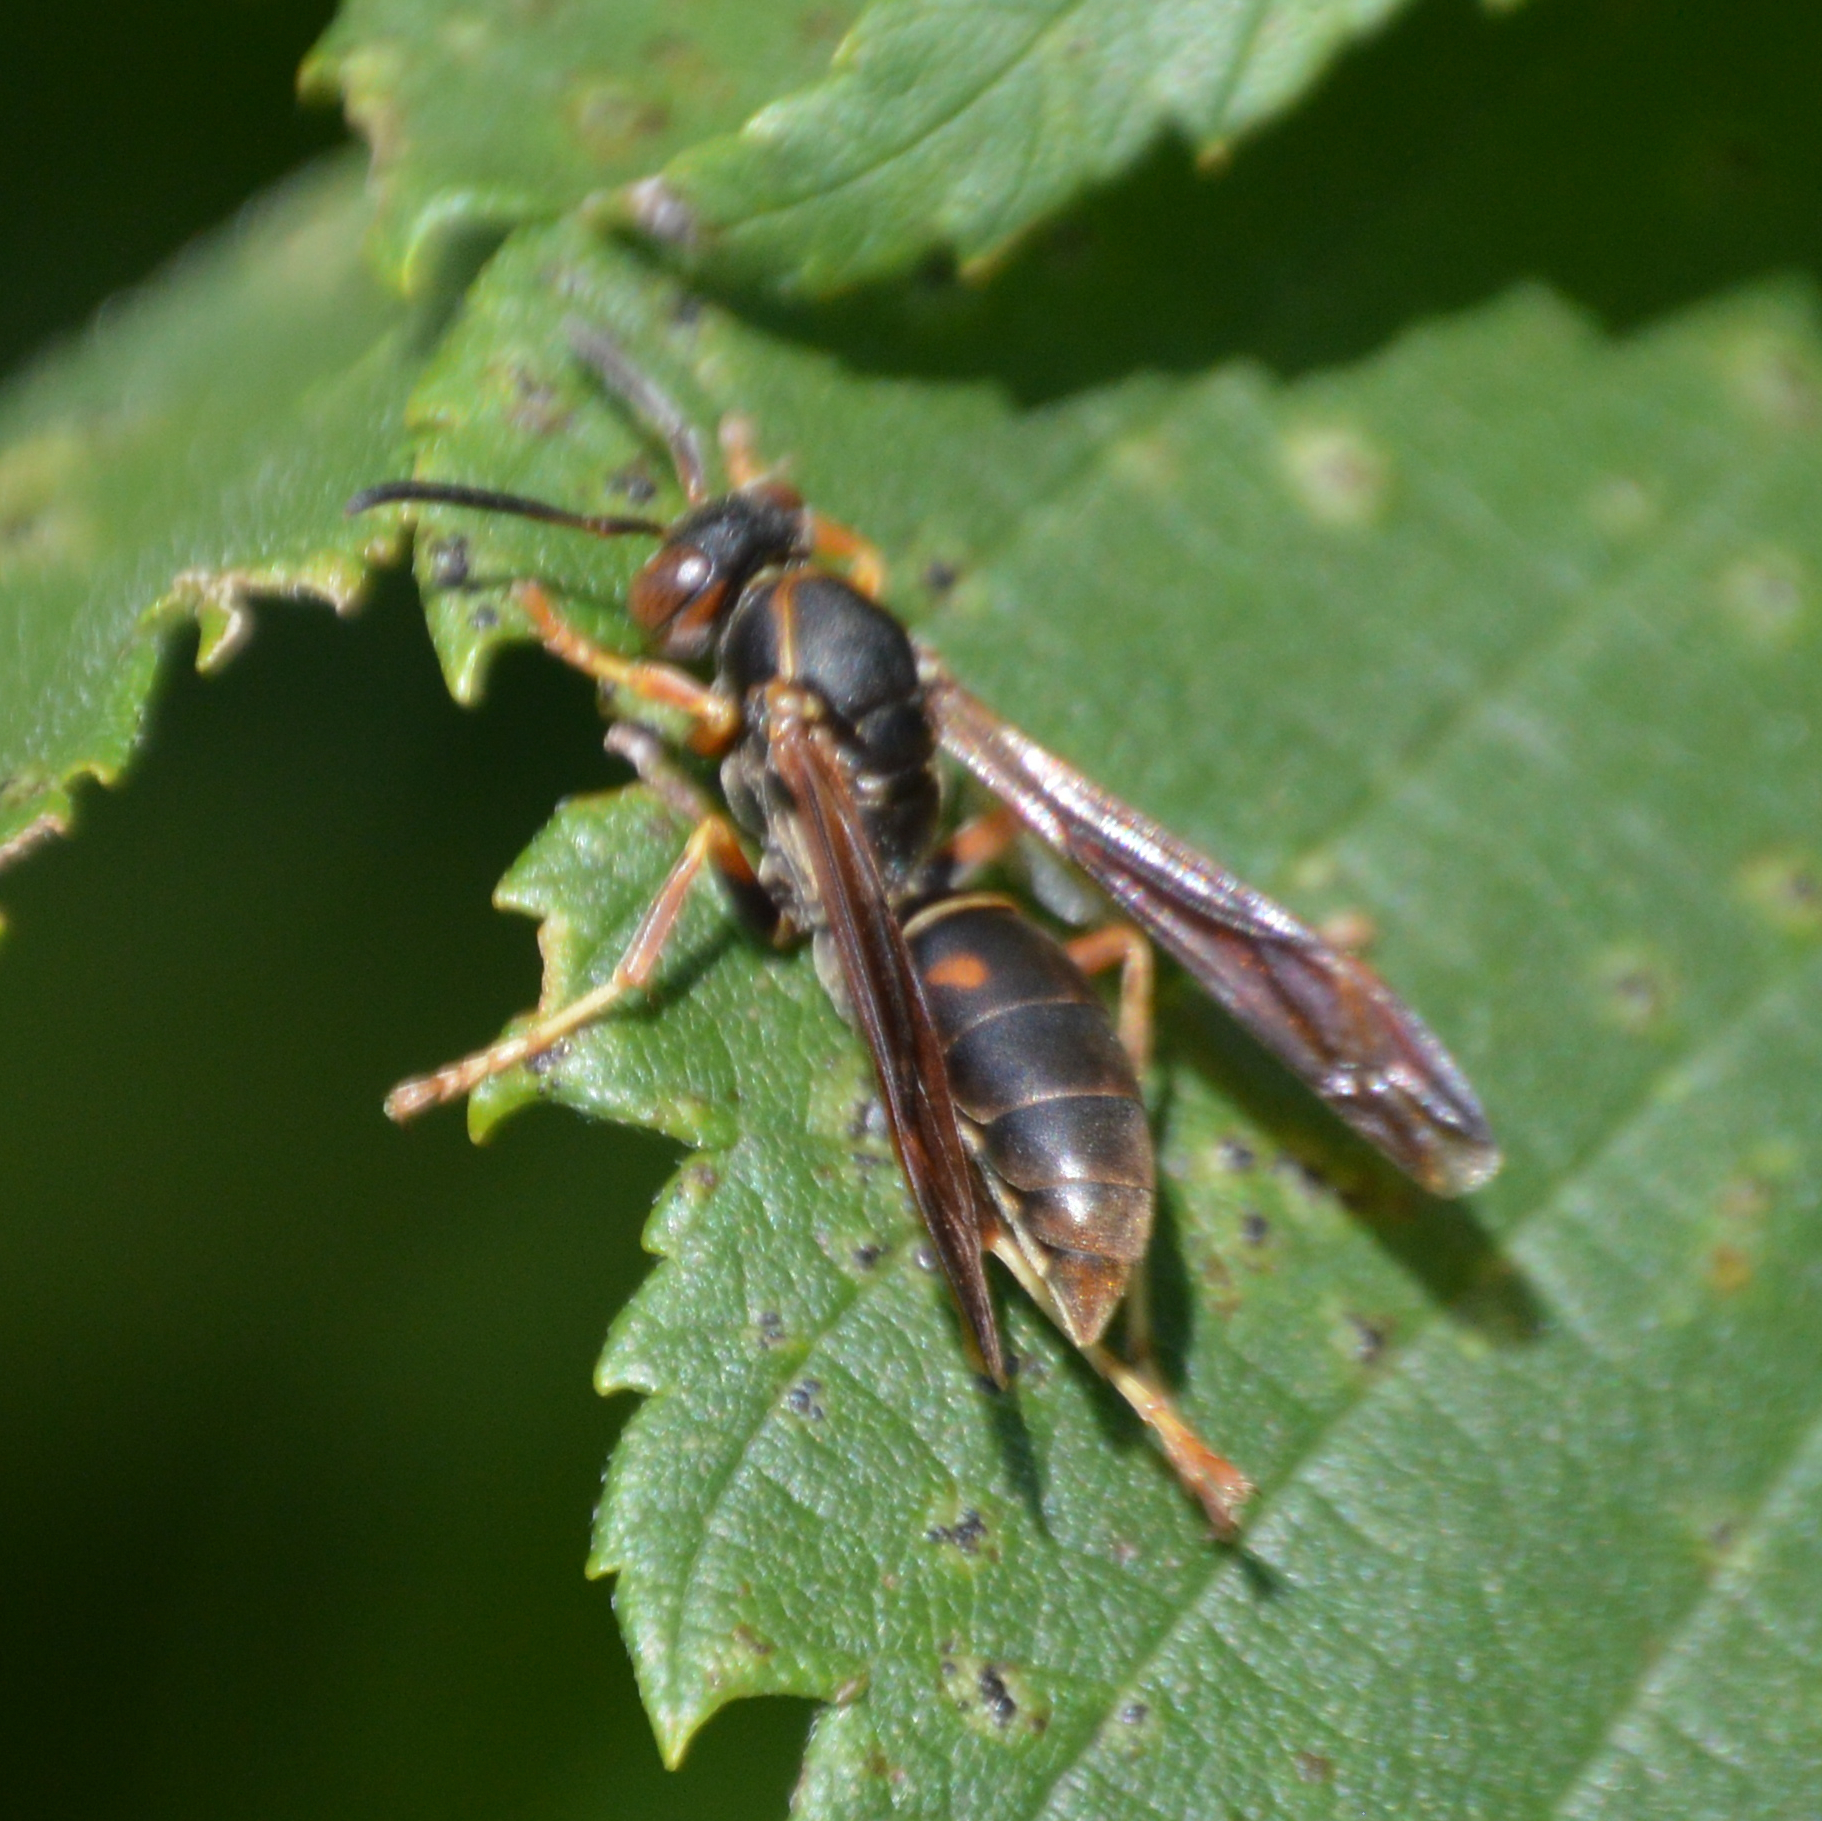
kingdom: Animalia
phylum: Arthropoda
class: Insecta
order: Hymenoptera
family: Eumenidae
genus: Polistes
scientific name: Polistes fuscatus
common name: Dark paper wasp
